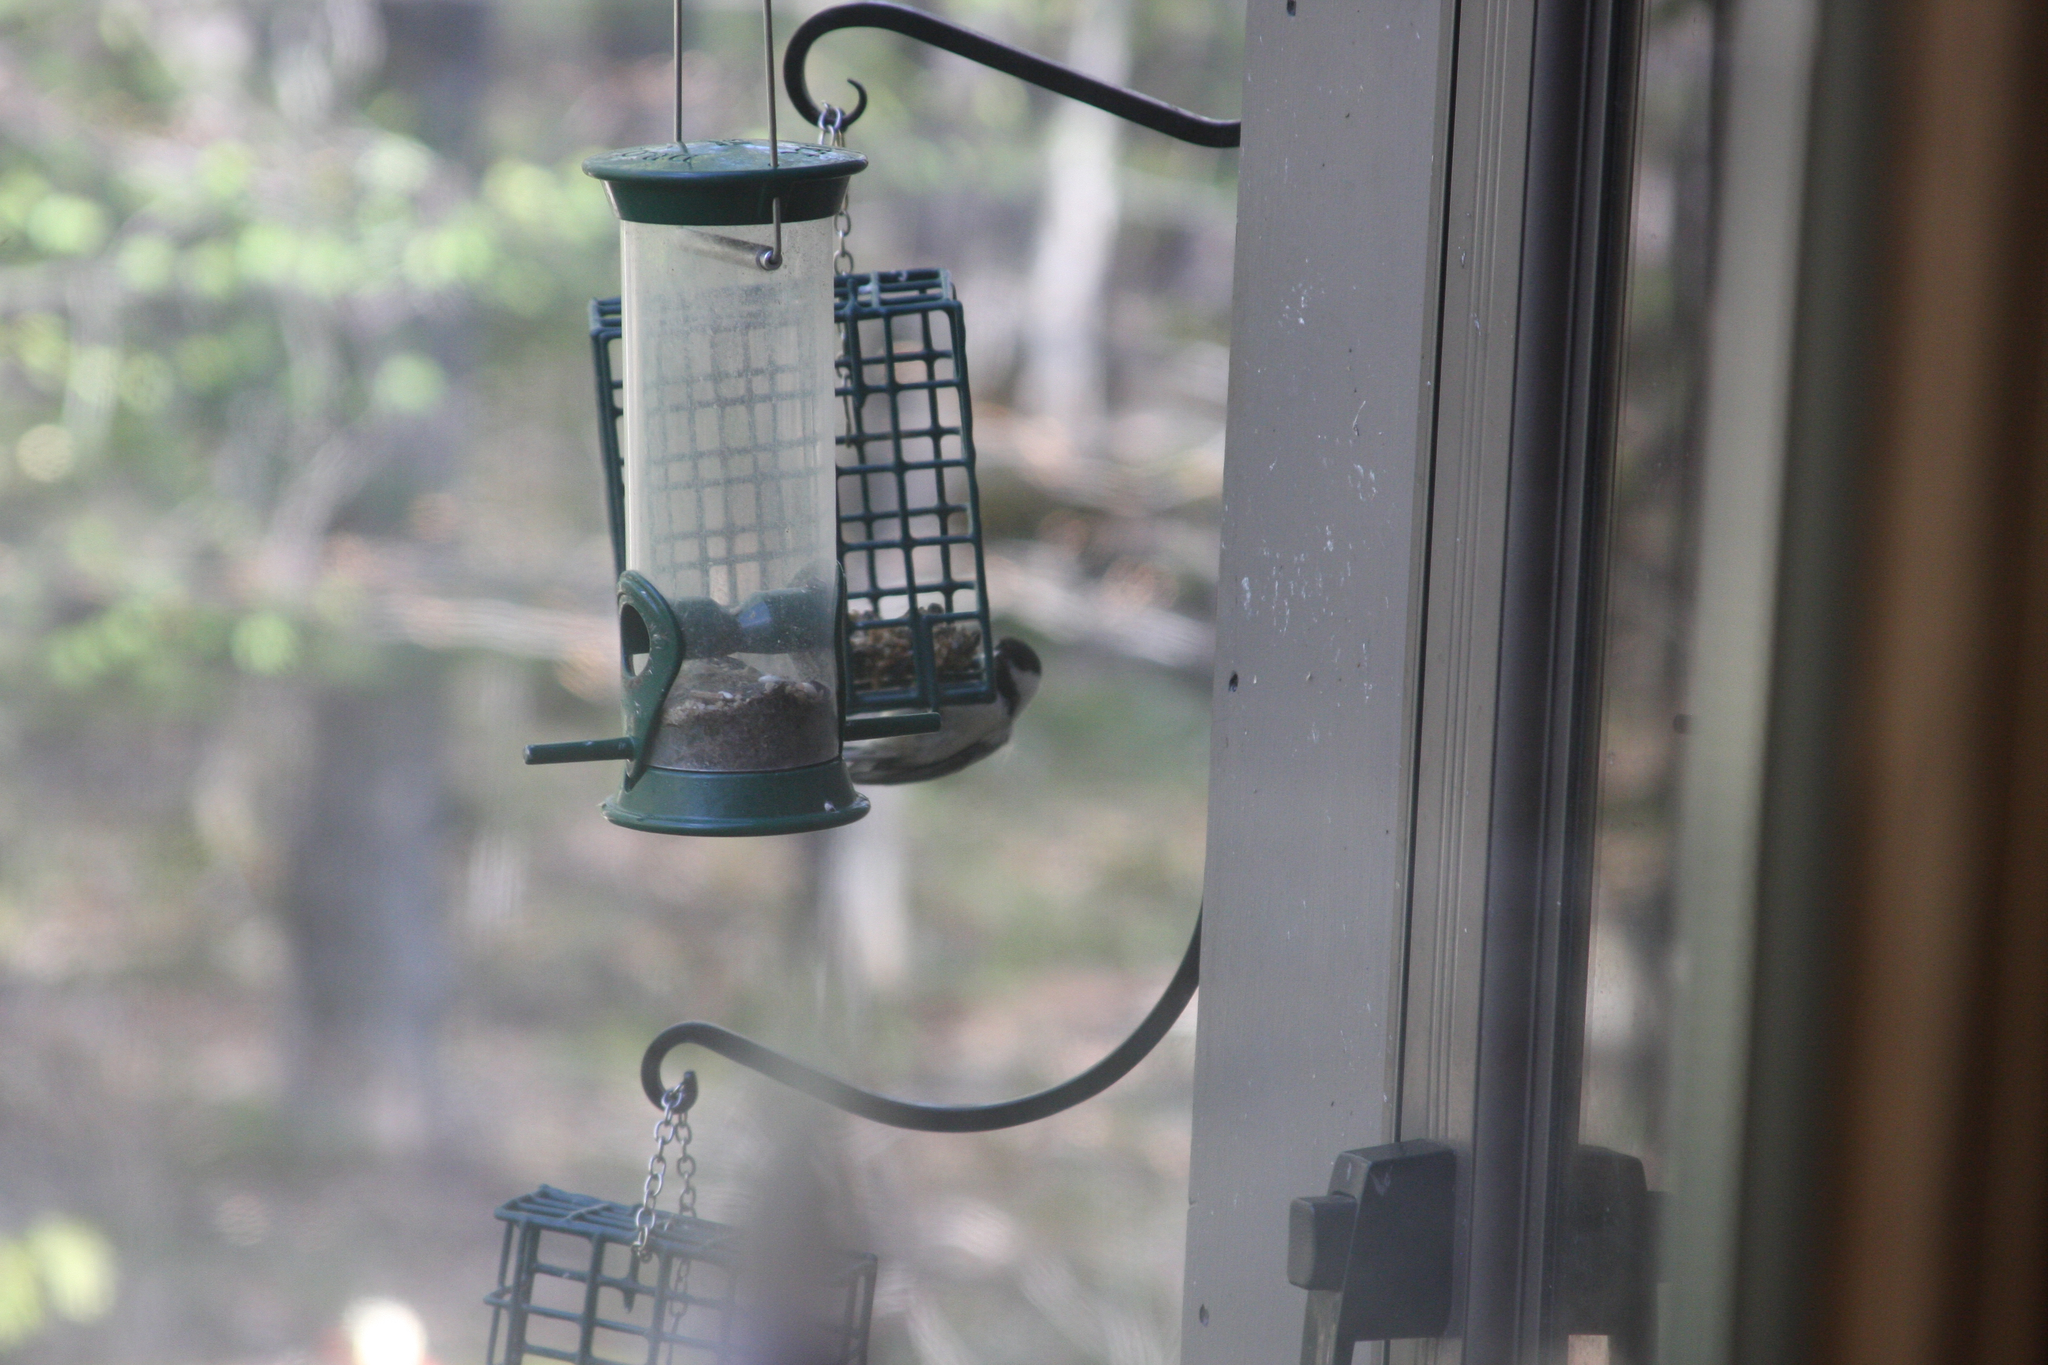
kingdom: Animalia
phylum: Chordata
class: Aves
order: Passeriformes
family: Paridae
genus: Poecile
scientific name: Poecile atricapillus
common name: Black-capped chickadee
